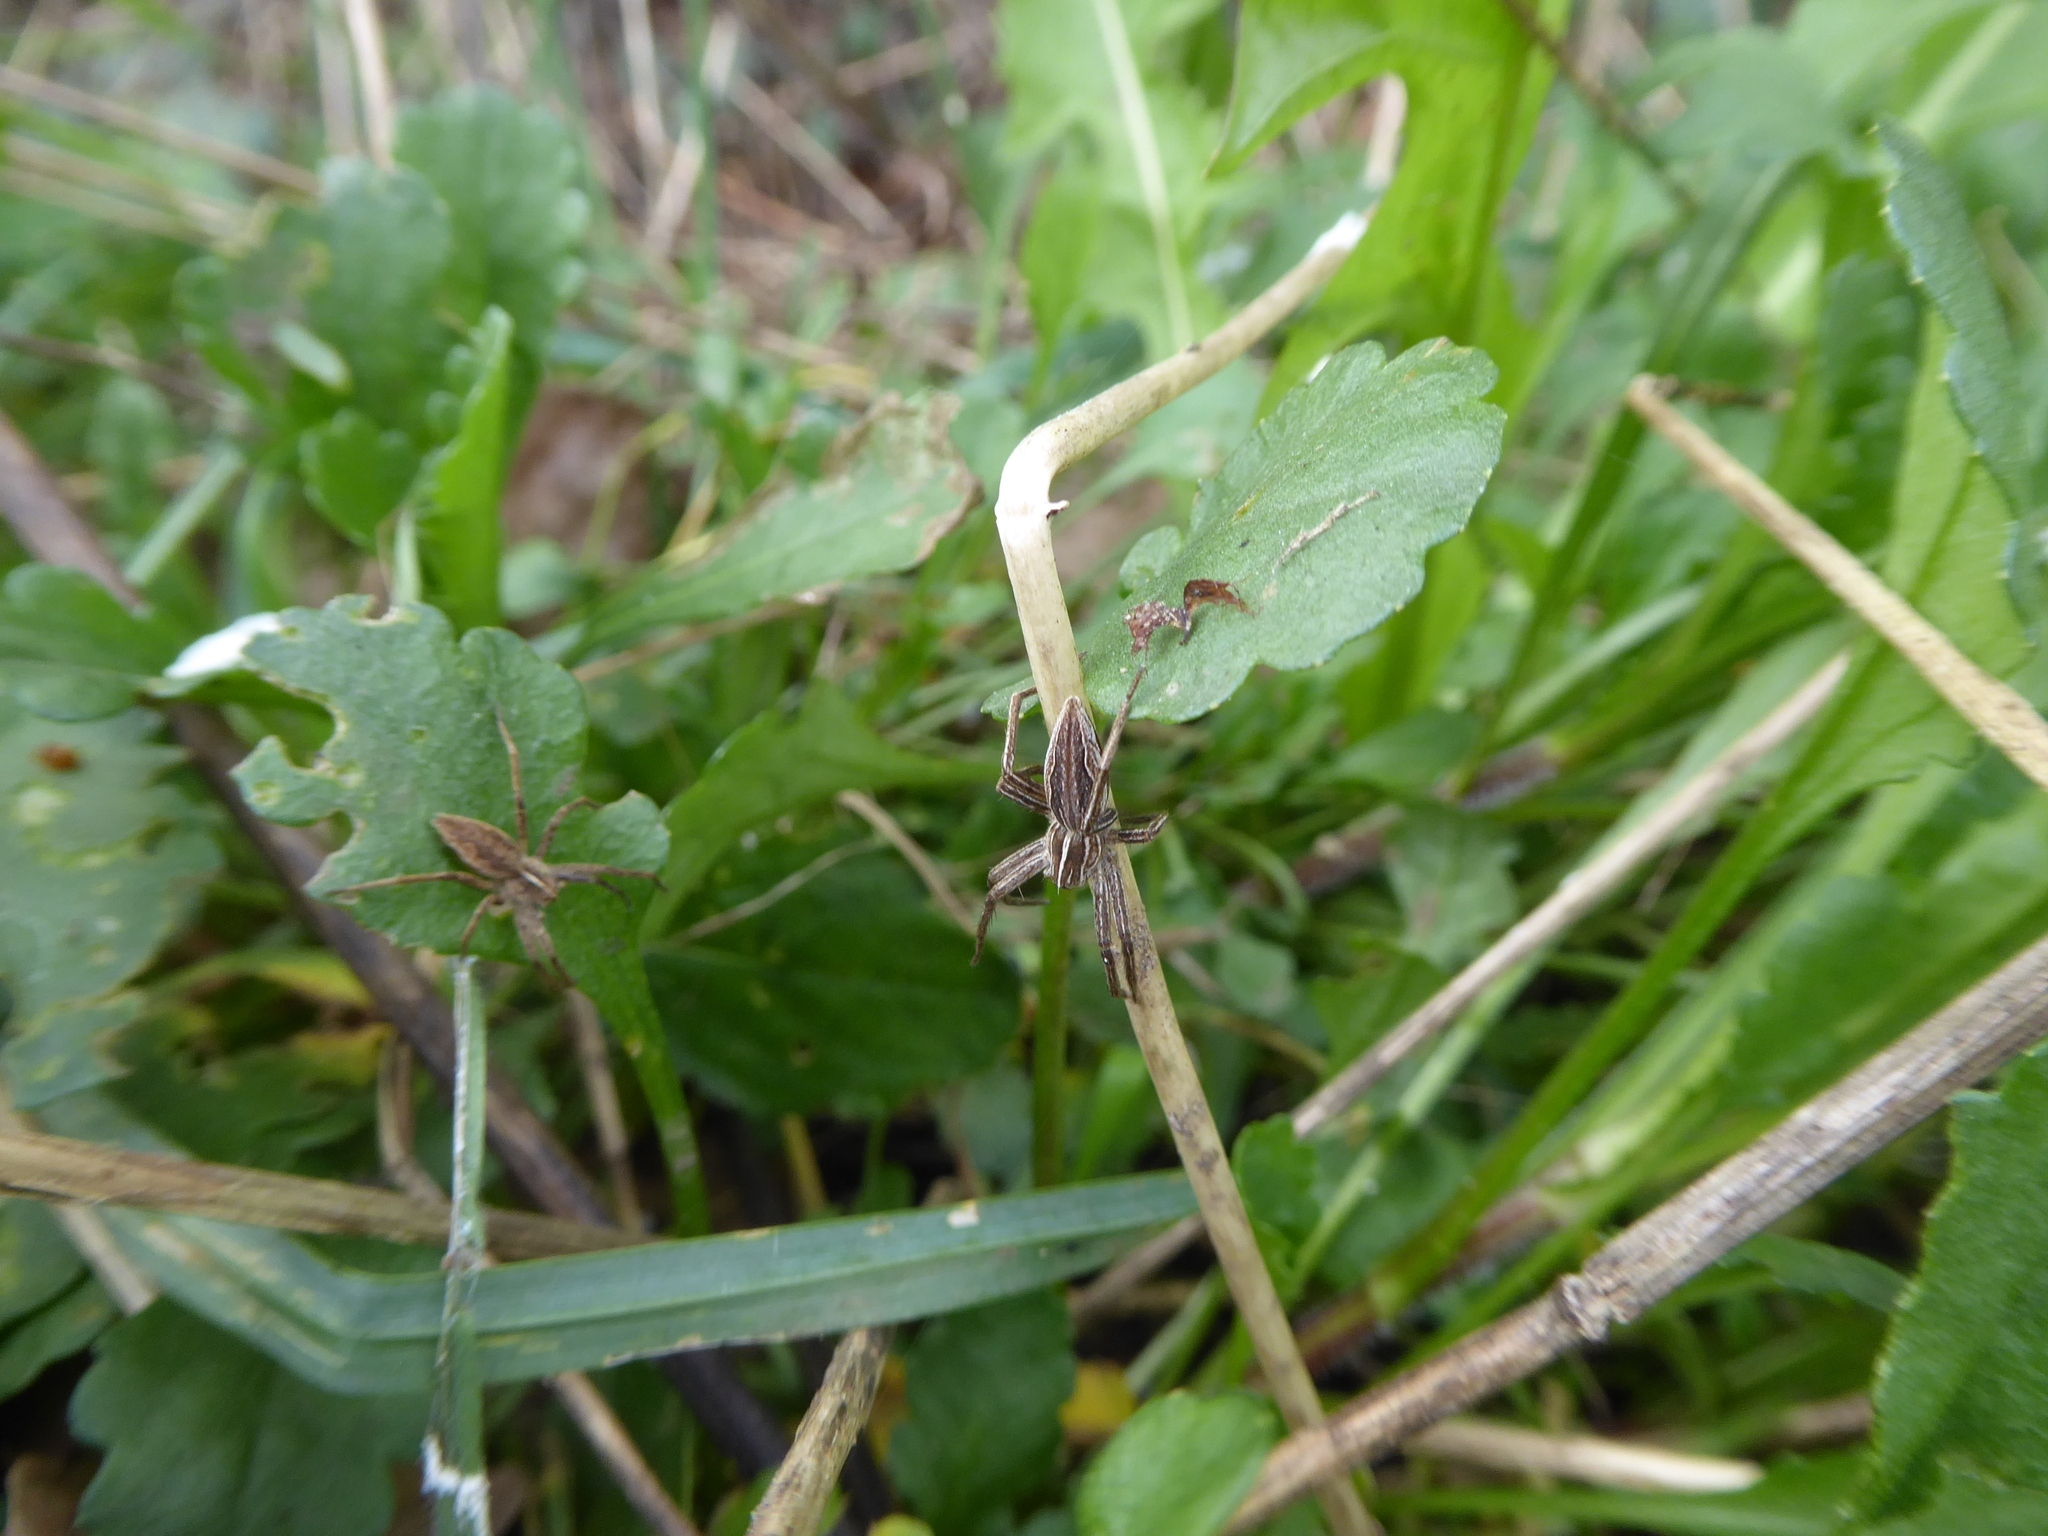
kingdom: Animalia
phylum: Arthropoda
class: Arachnida
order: Araneae
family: Pisauridae
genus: Pisaura
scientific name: Pisaura mirabilis
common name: Tent spider
